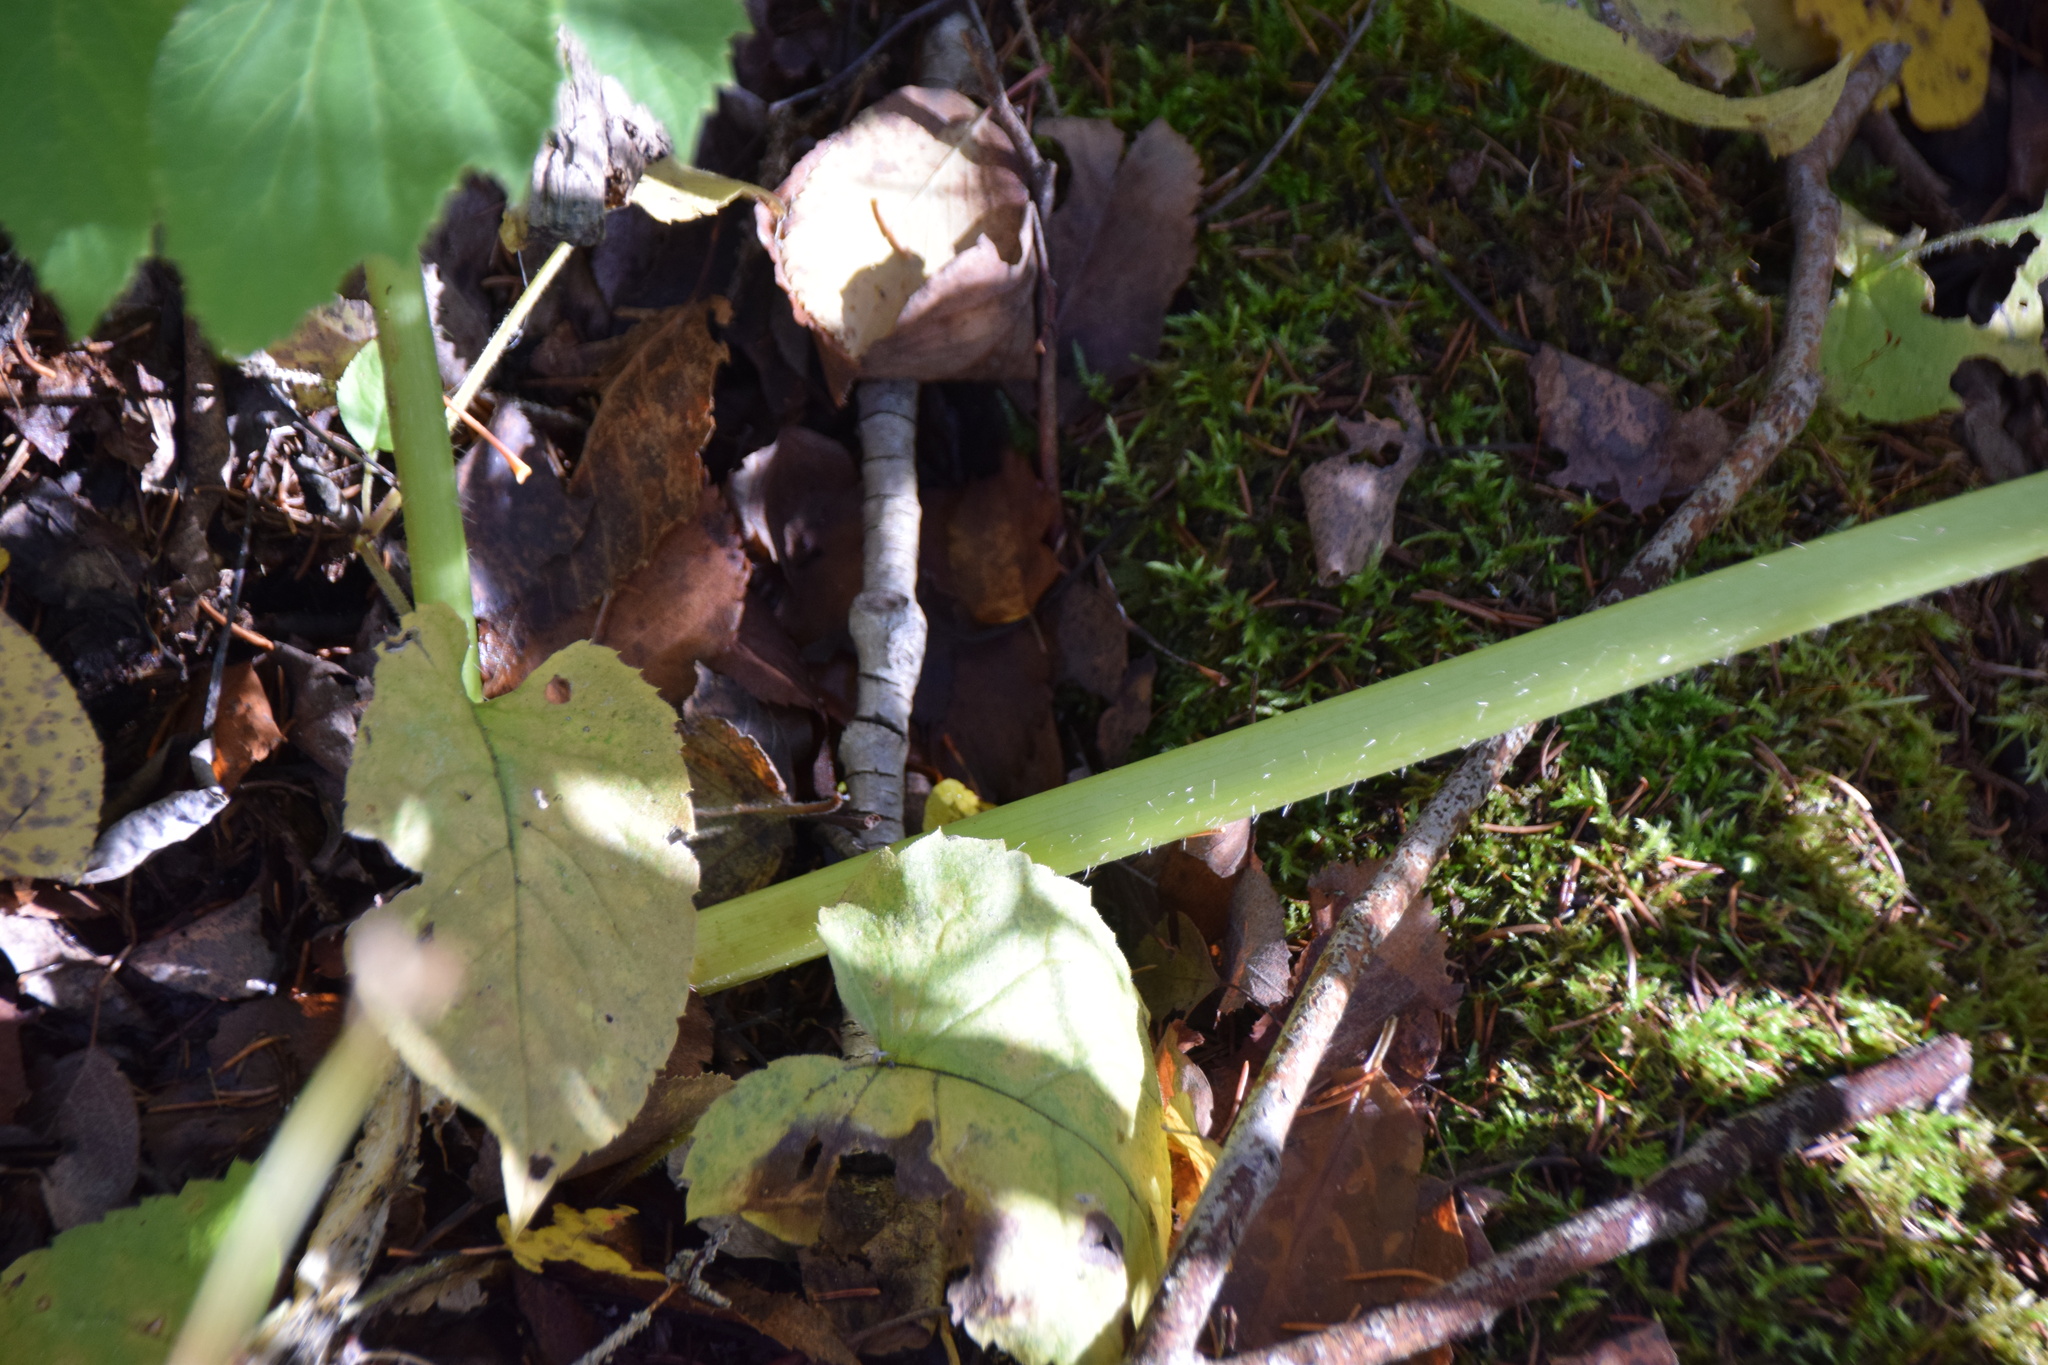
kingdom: Plantae
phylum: Tracheophyta
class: Magnoliopsida
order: Apiales
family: Apiaceae
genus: Heracleum
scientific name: Heracleum maximum
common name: American cow parsnip
